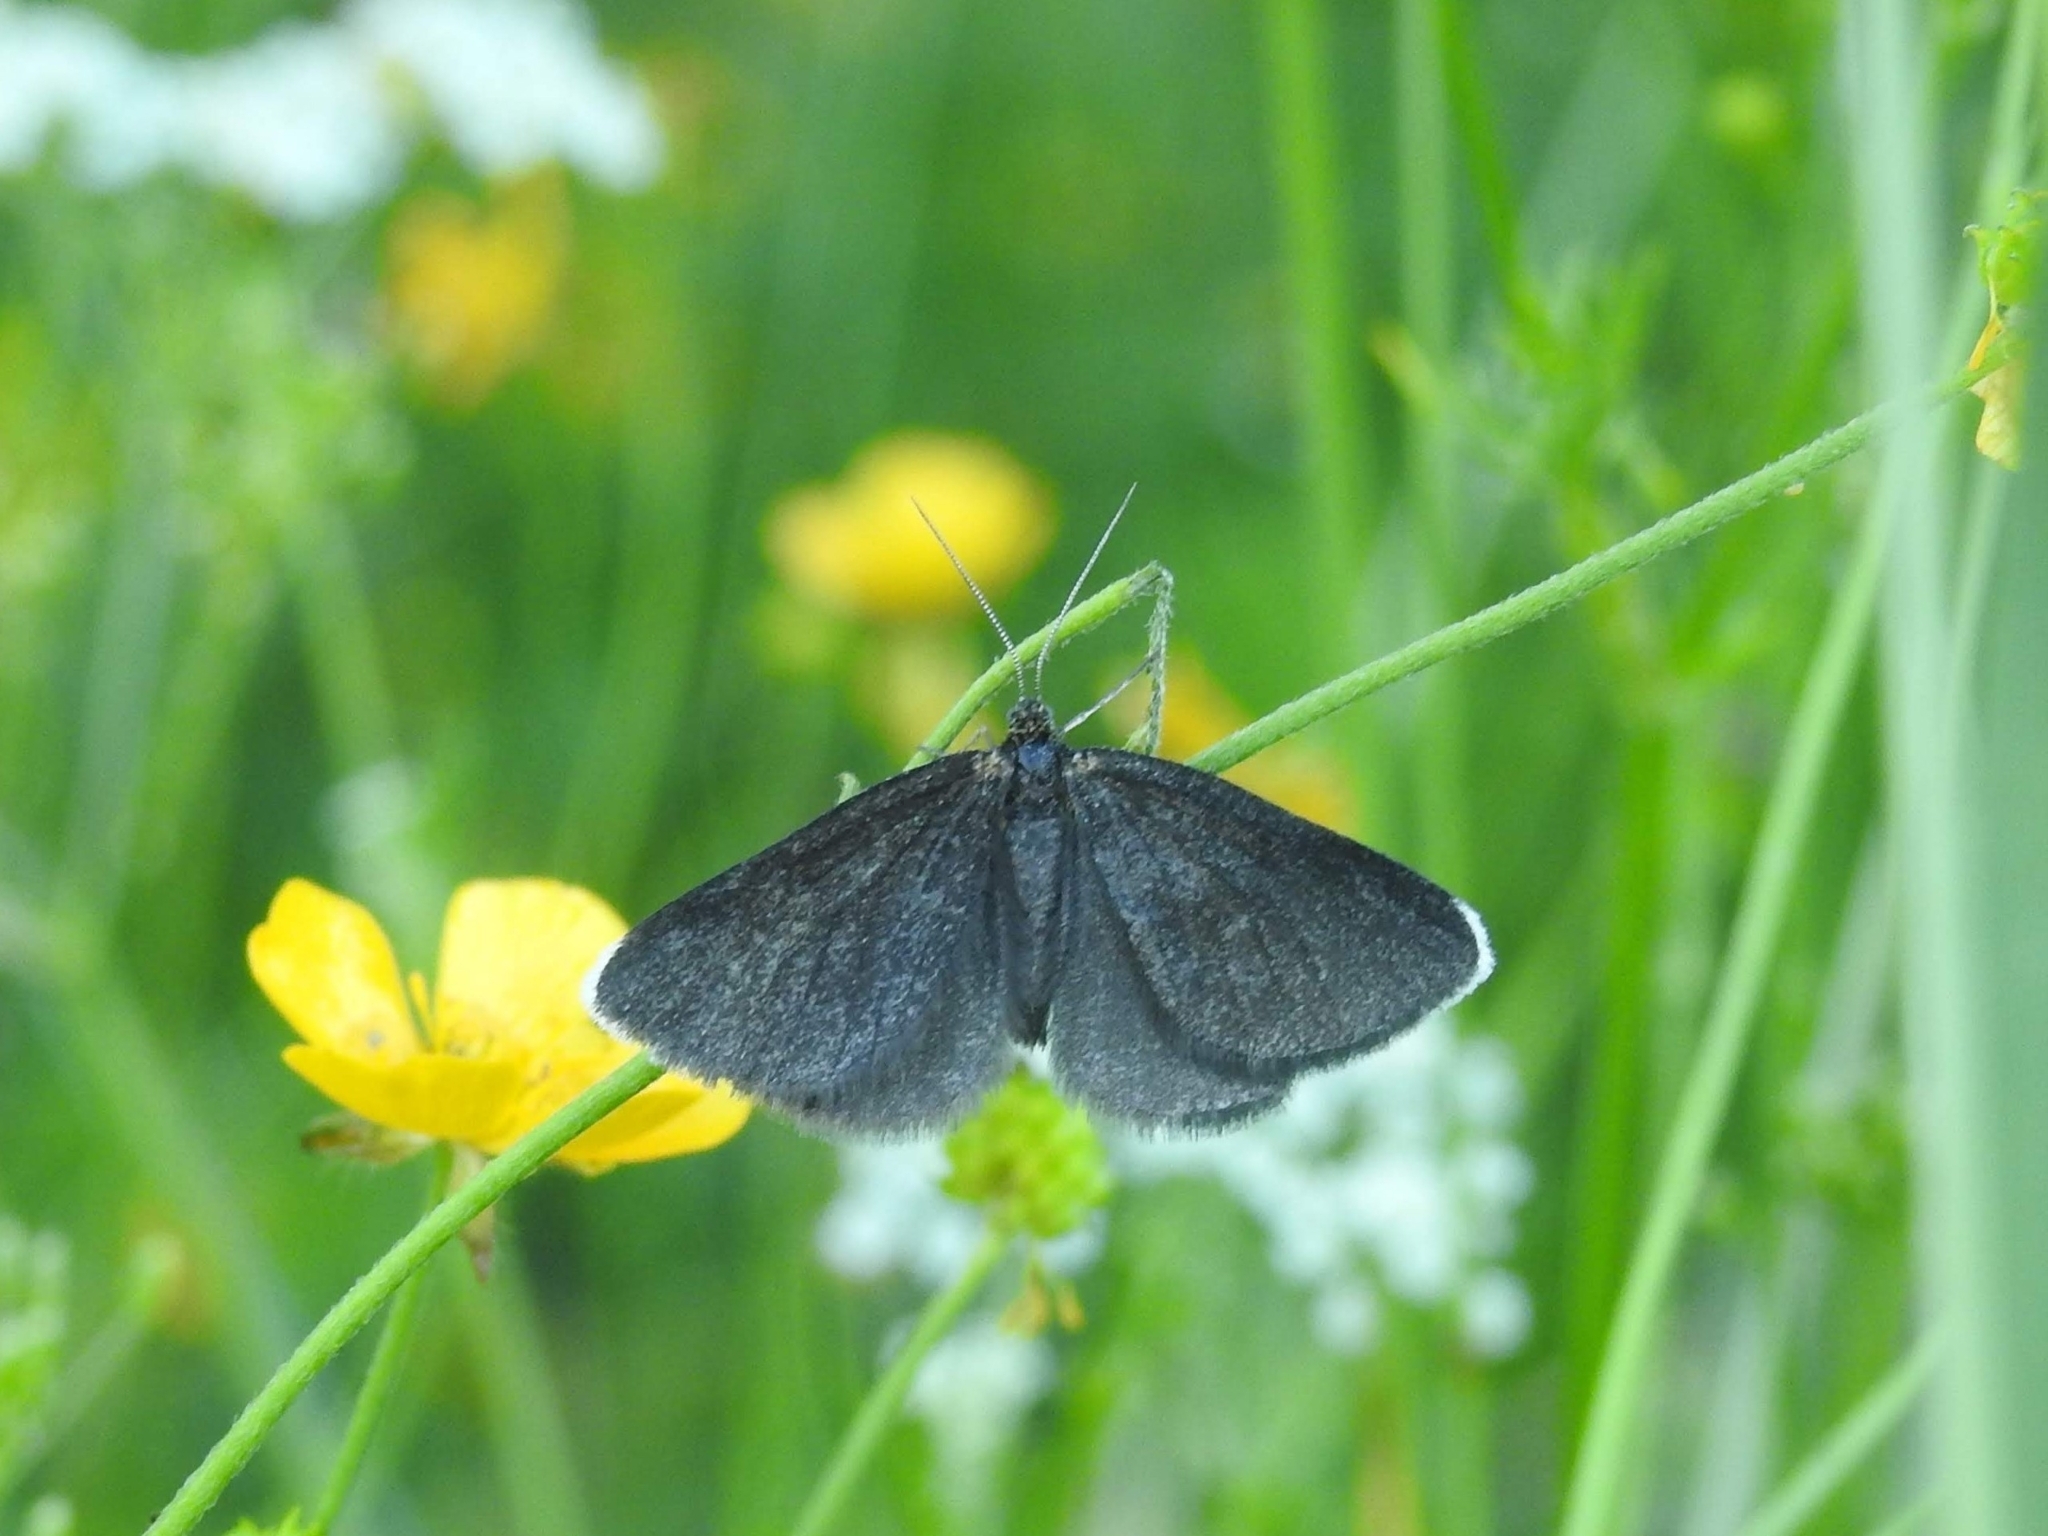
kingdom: Animalia
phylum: Arthropoda
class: Insecta
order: Lepidoptera
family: Geometridae
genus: Odezia
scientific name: Odezia atrata
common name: Chimney sweeper
